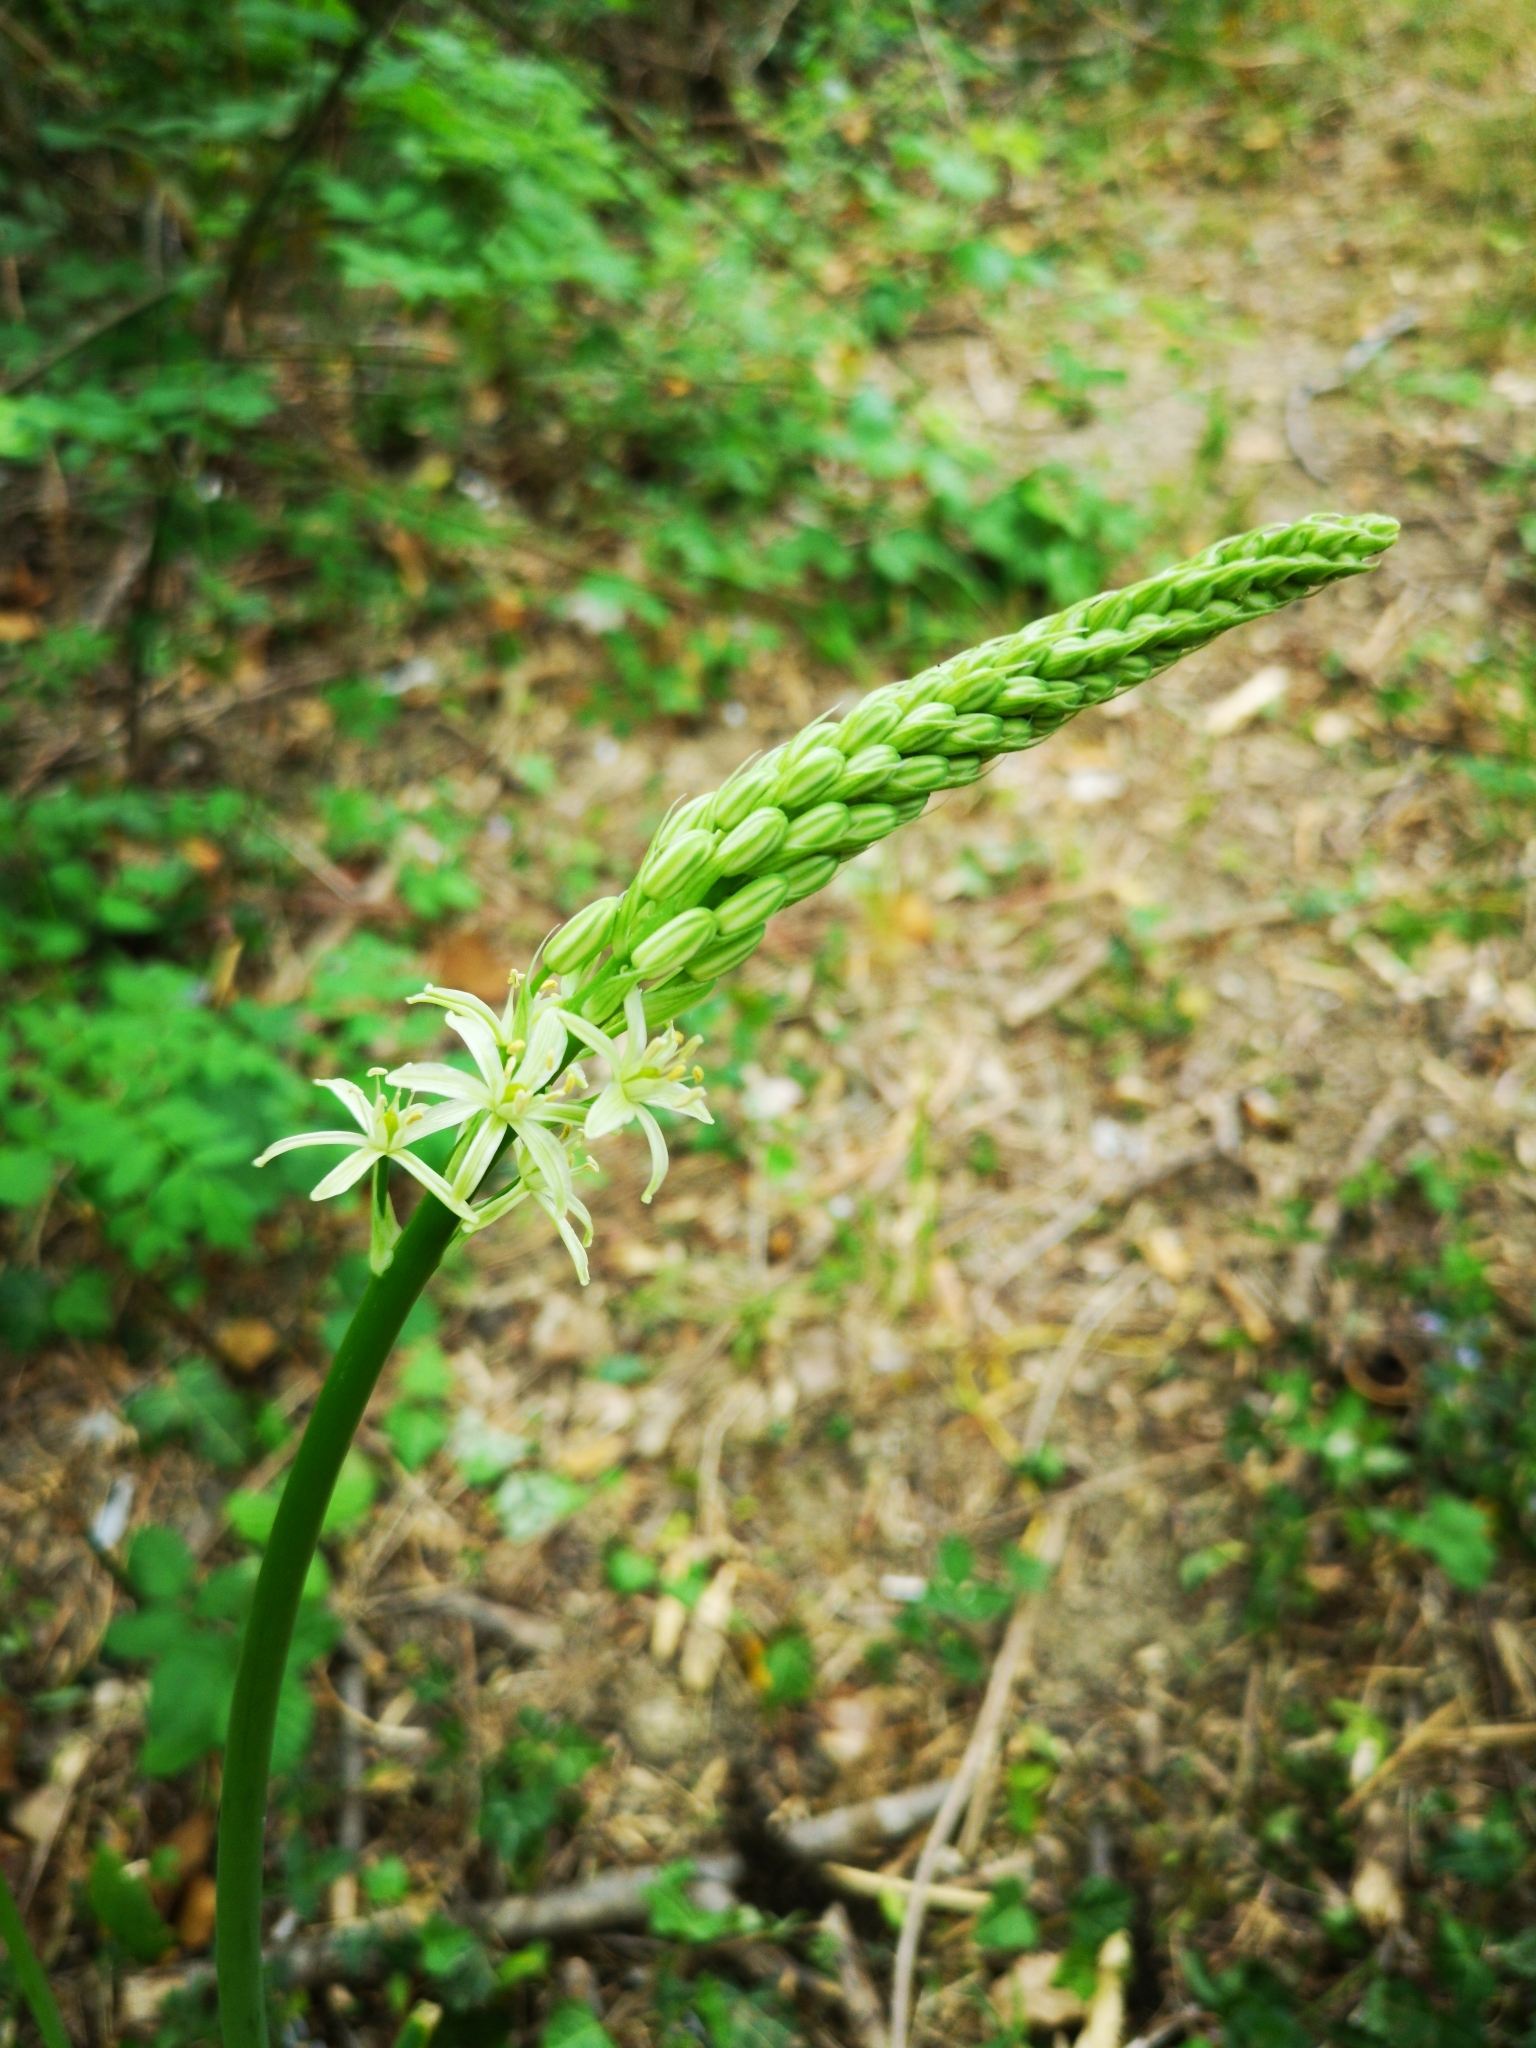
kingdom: Plantae
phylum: Tracheophyta
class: Liliopsida
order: Asparagales
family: Asparagaceae
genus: Ornithogalum
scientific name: Ornithogalum pyrenaicum
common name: Spiked star-of-bethlehem
